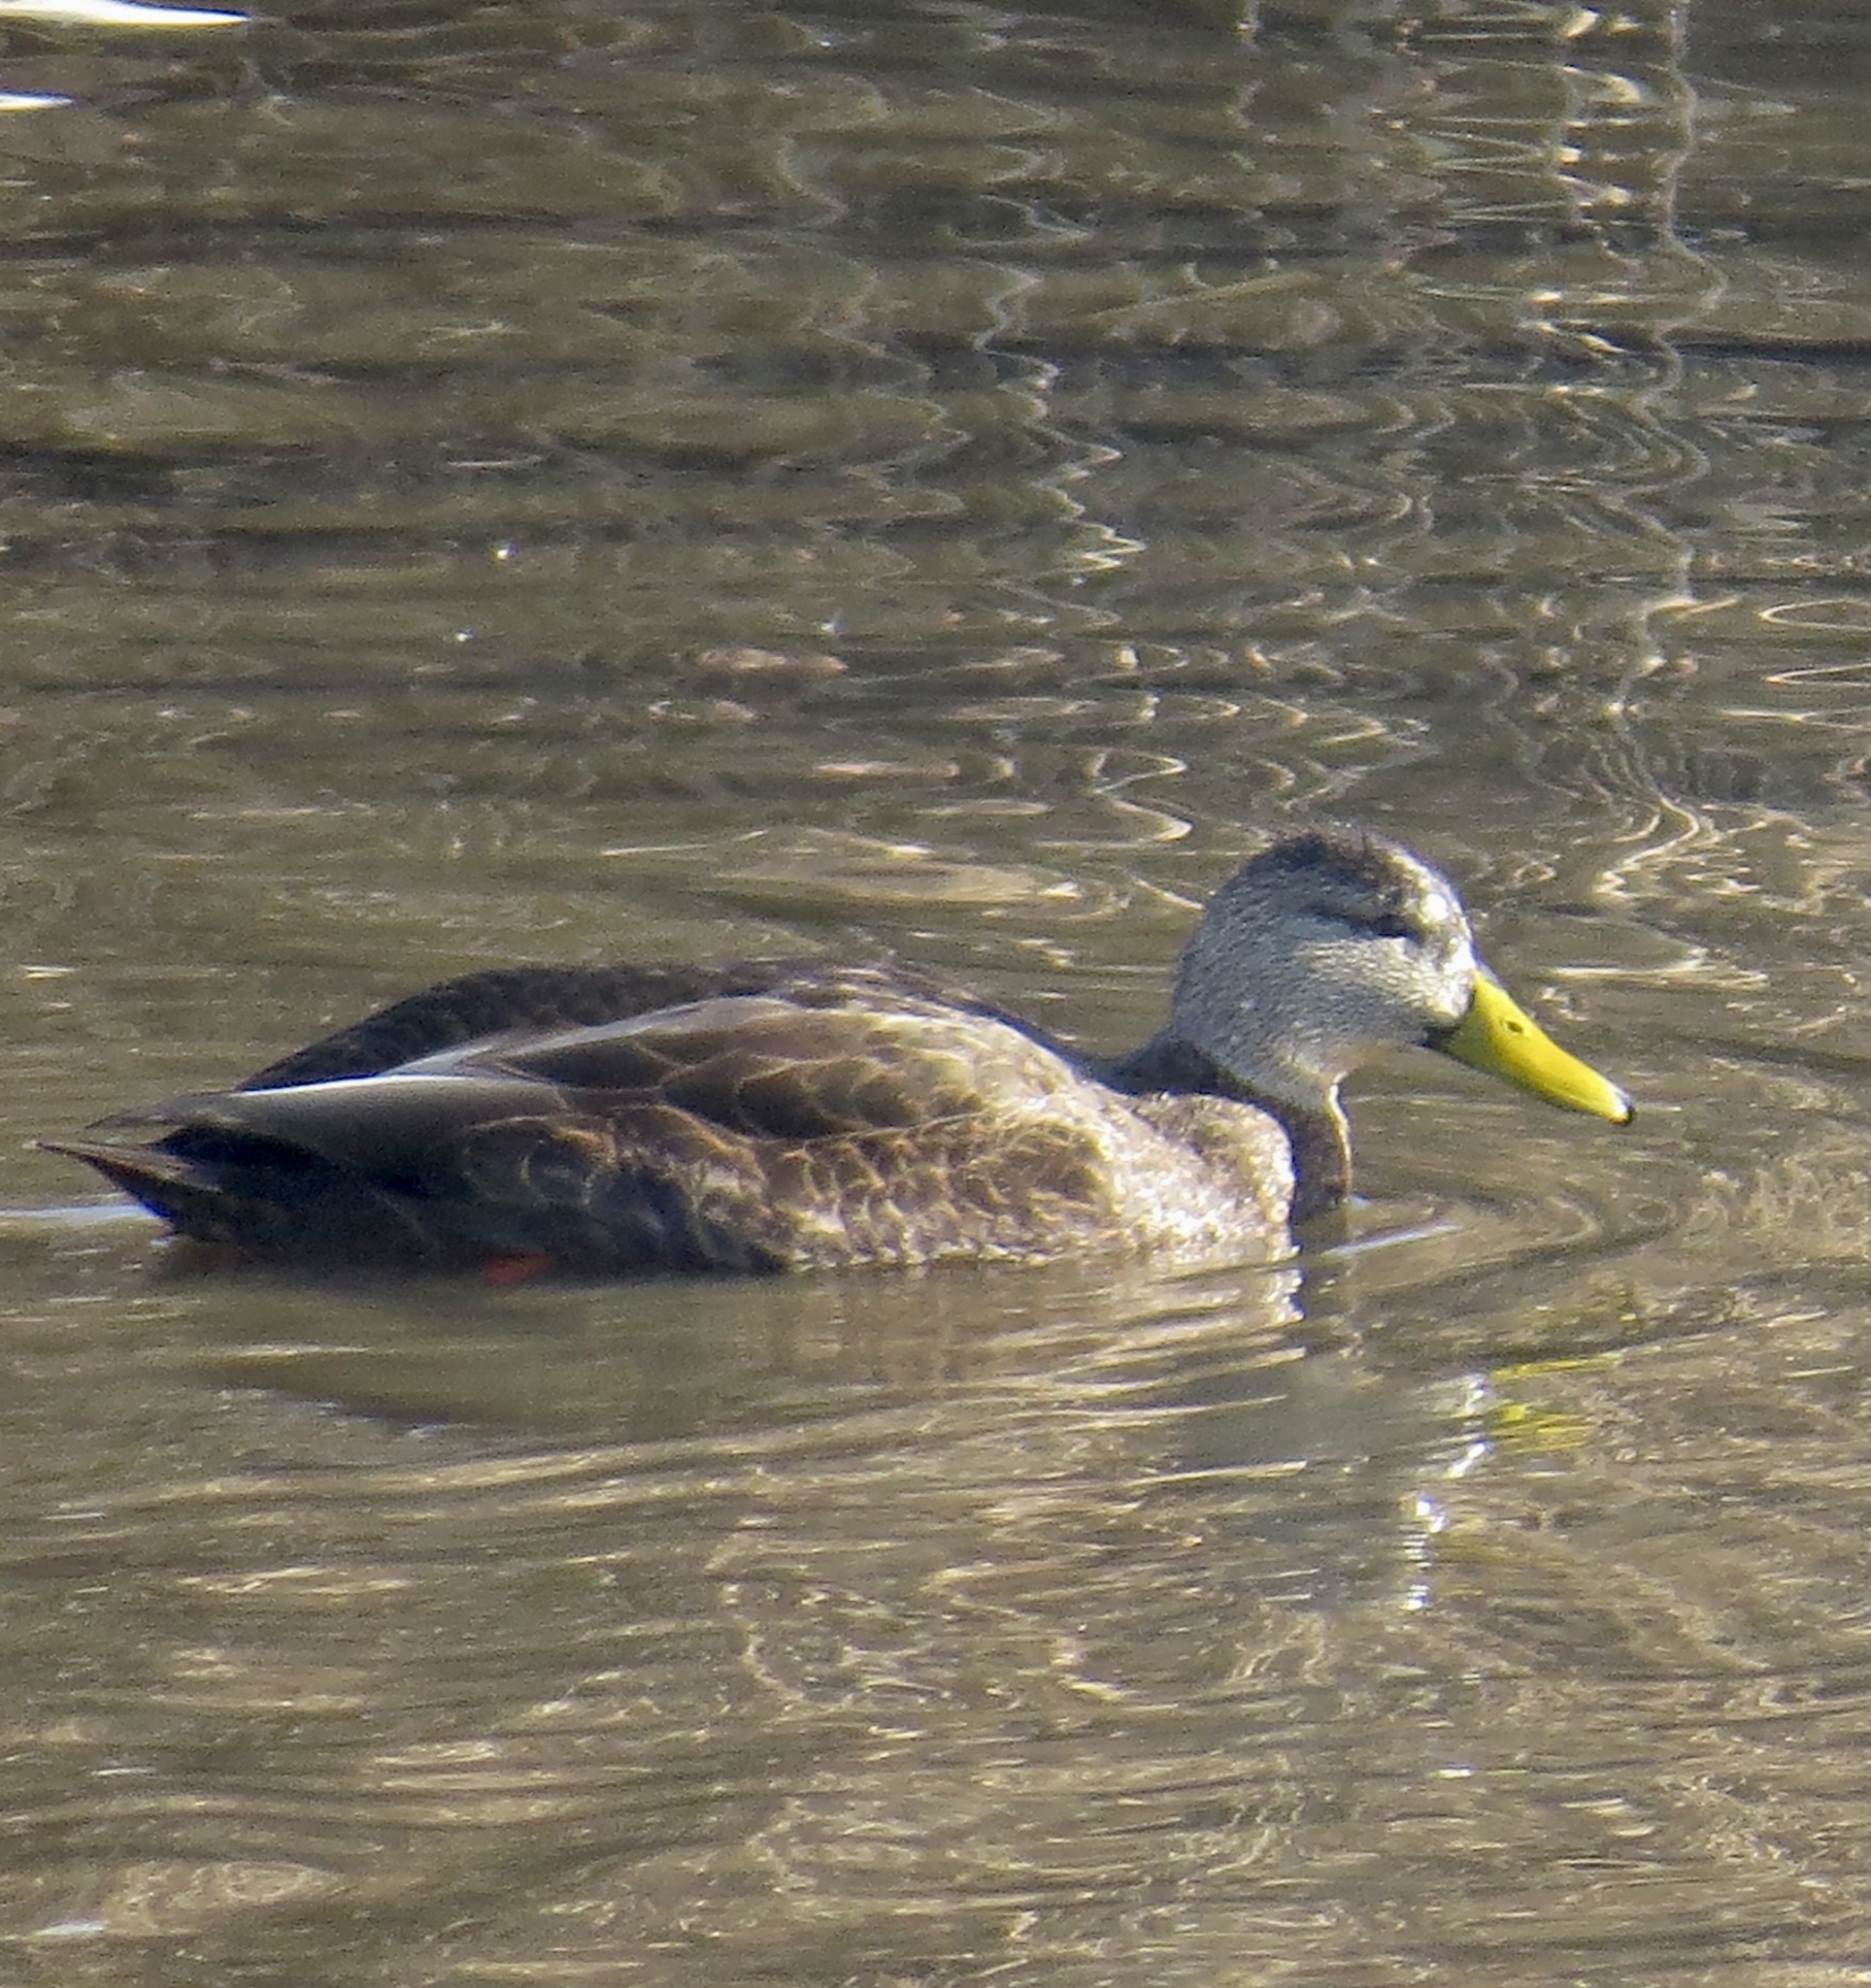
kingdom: Animalia
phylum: Chordata
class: Aves
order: Anseriformes
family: Anatidae
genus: Anas
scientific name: Anas rubripes
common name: American black duck
